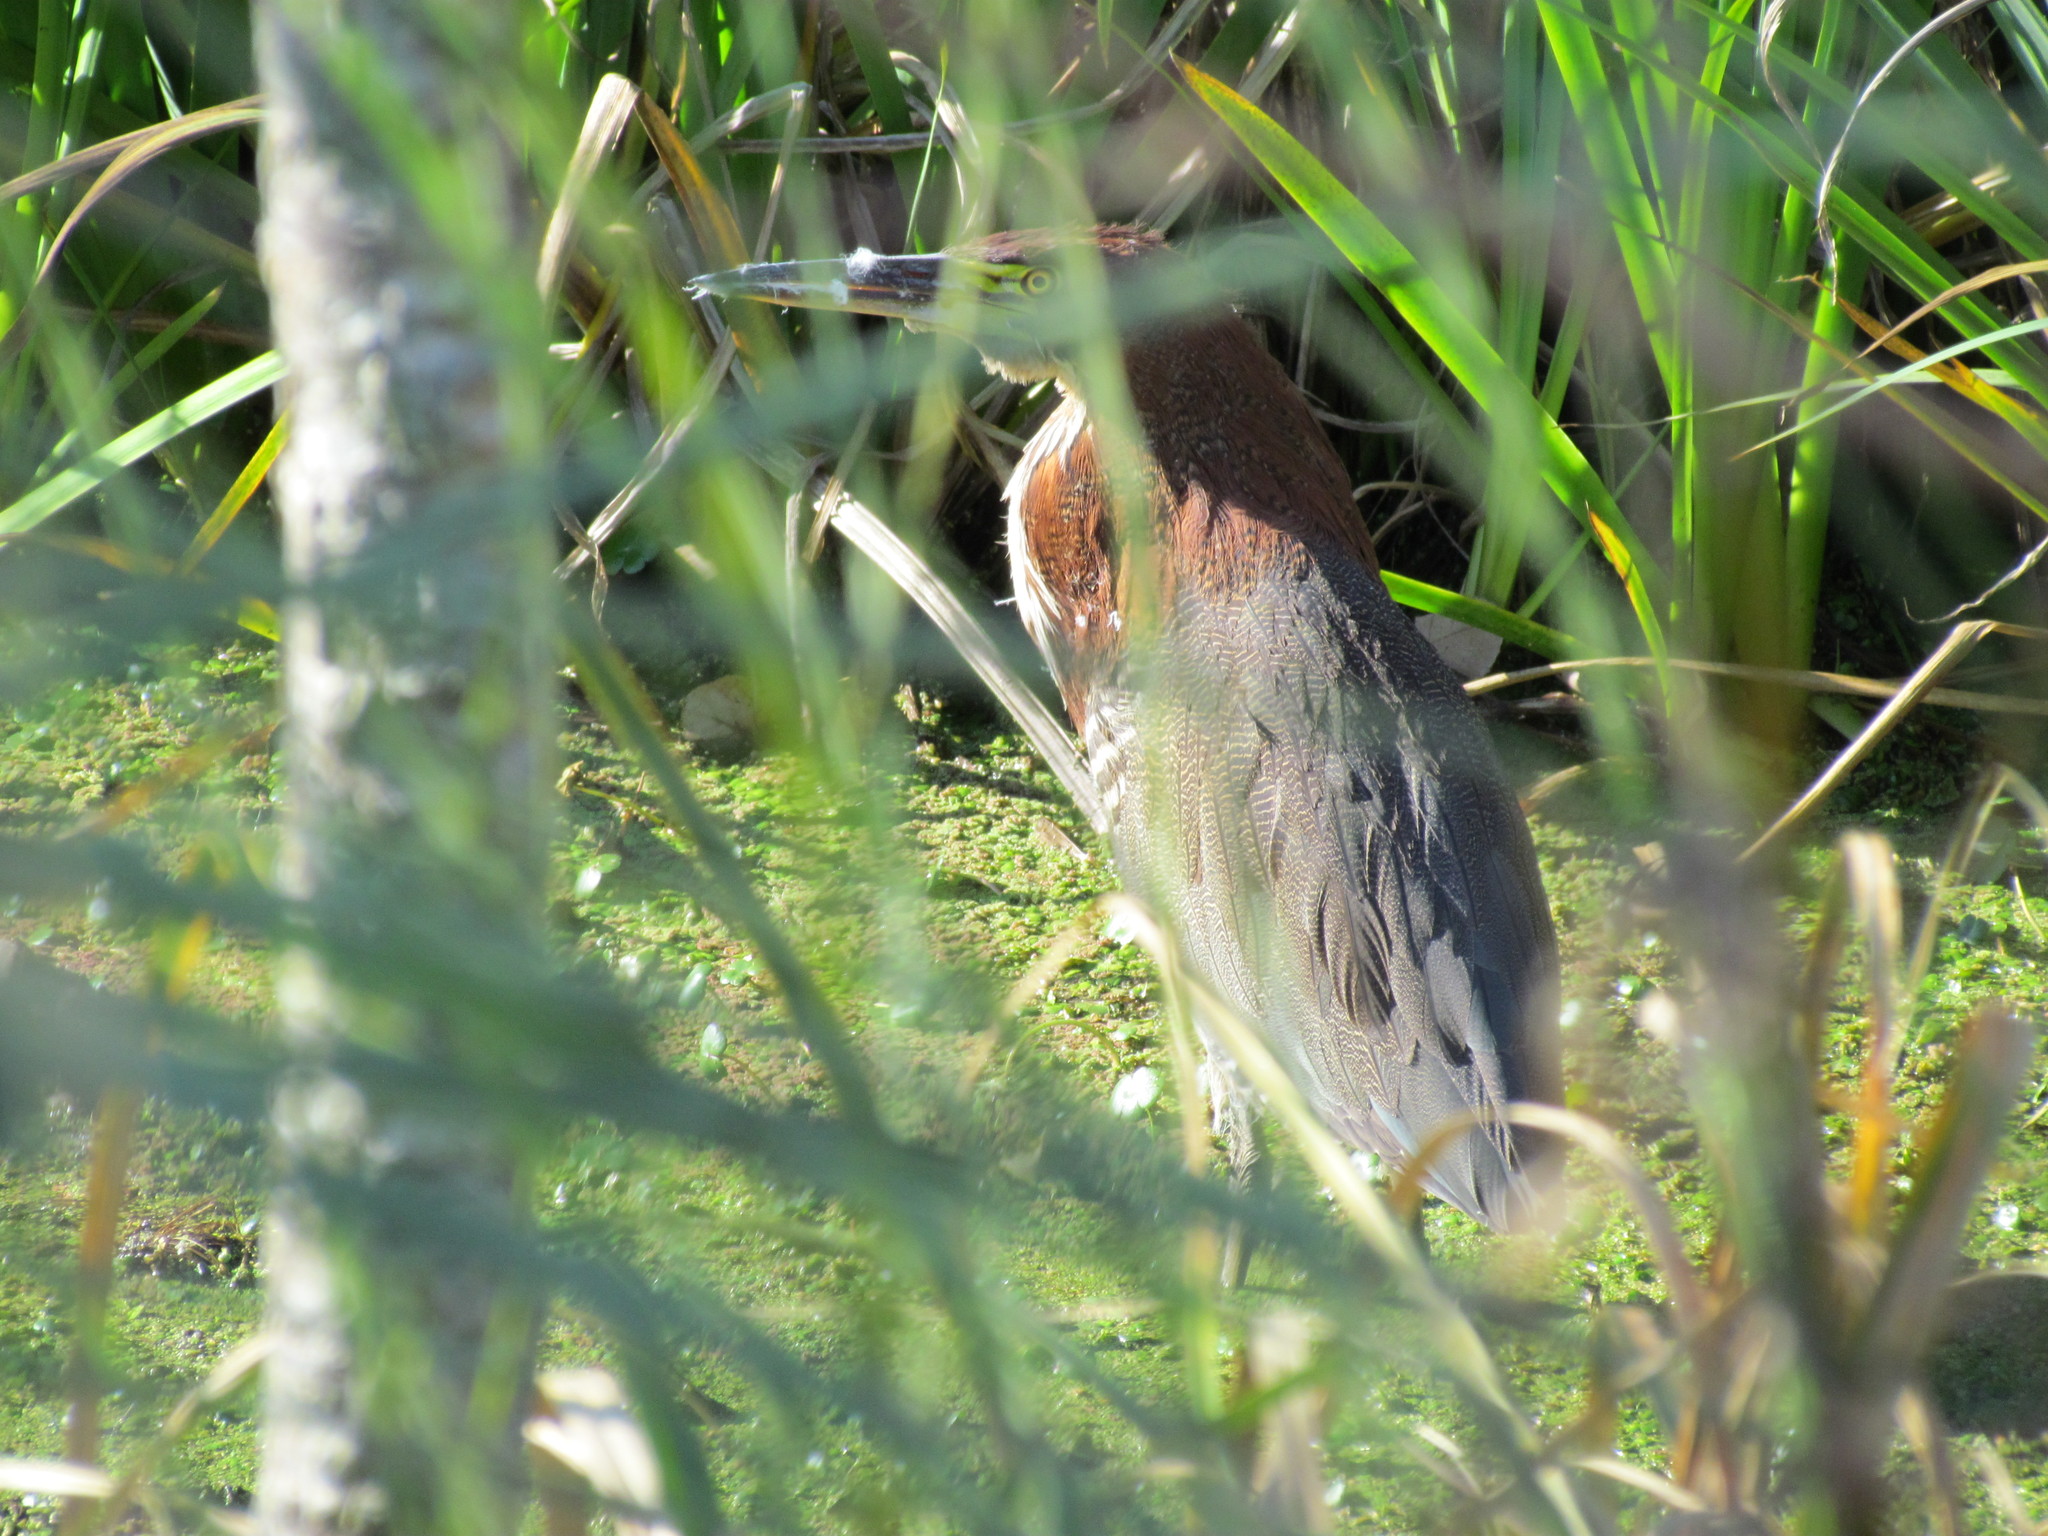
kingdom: Animalia
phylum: Chordata
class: Aves
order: Pelecaniformes
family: Ardeidae
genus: Tigrisoma
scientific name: Tigrisoma lineatum
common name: Rufescent tiger-heron
